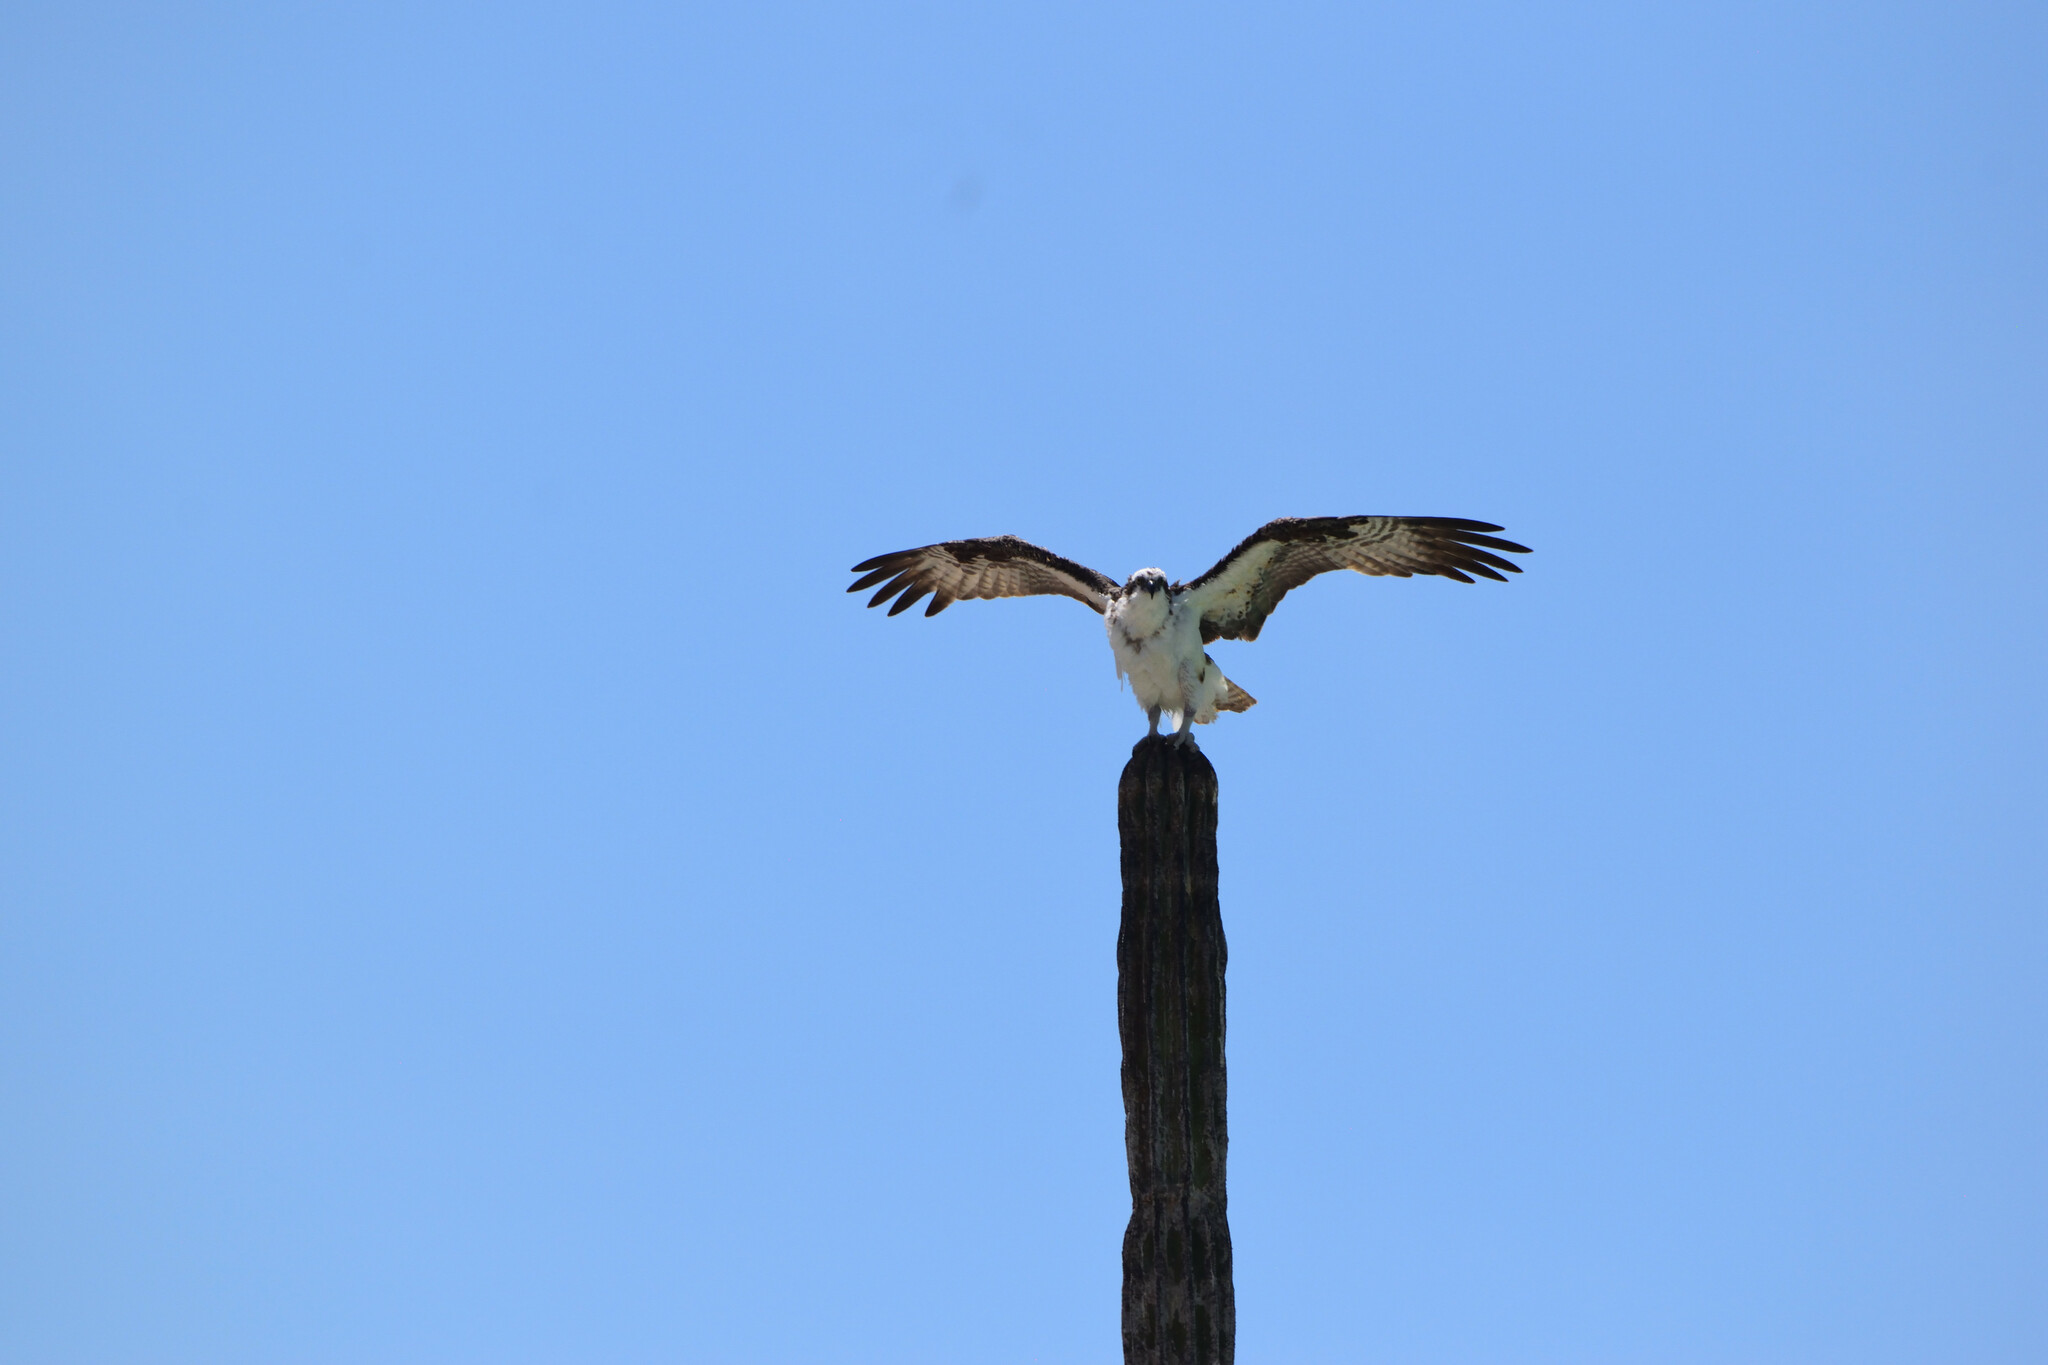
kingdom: Animalia
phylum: Chordata
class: Aves
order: Accipitriformes
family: Pandionidae
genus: Pandion
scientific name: Pandion haliaetus
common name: Osprey
